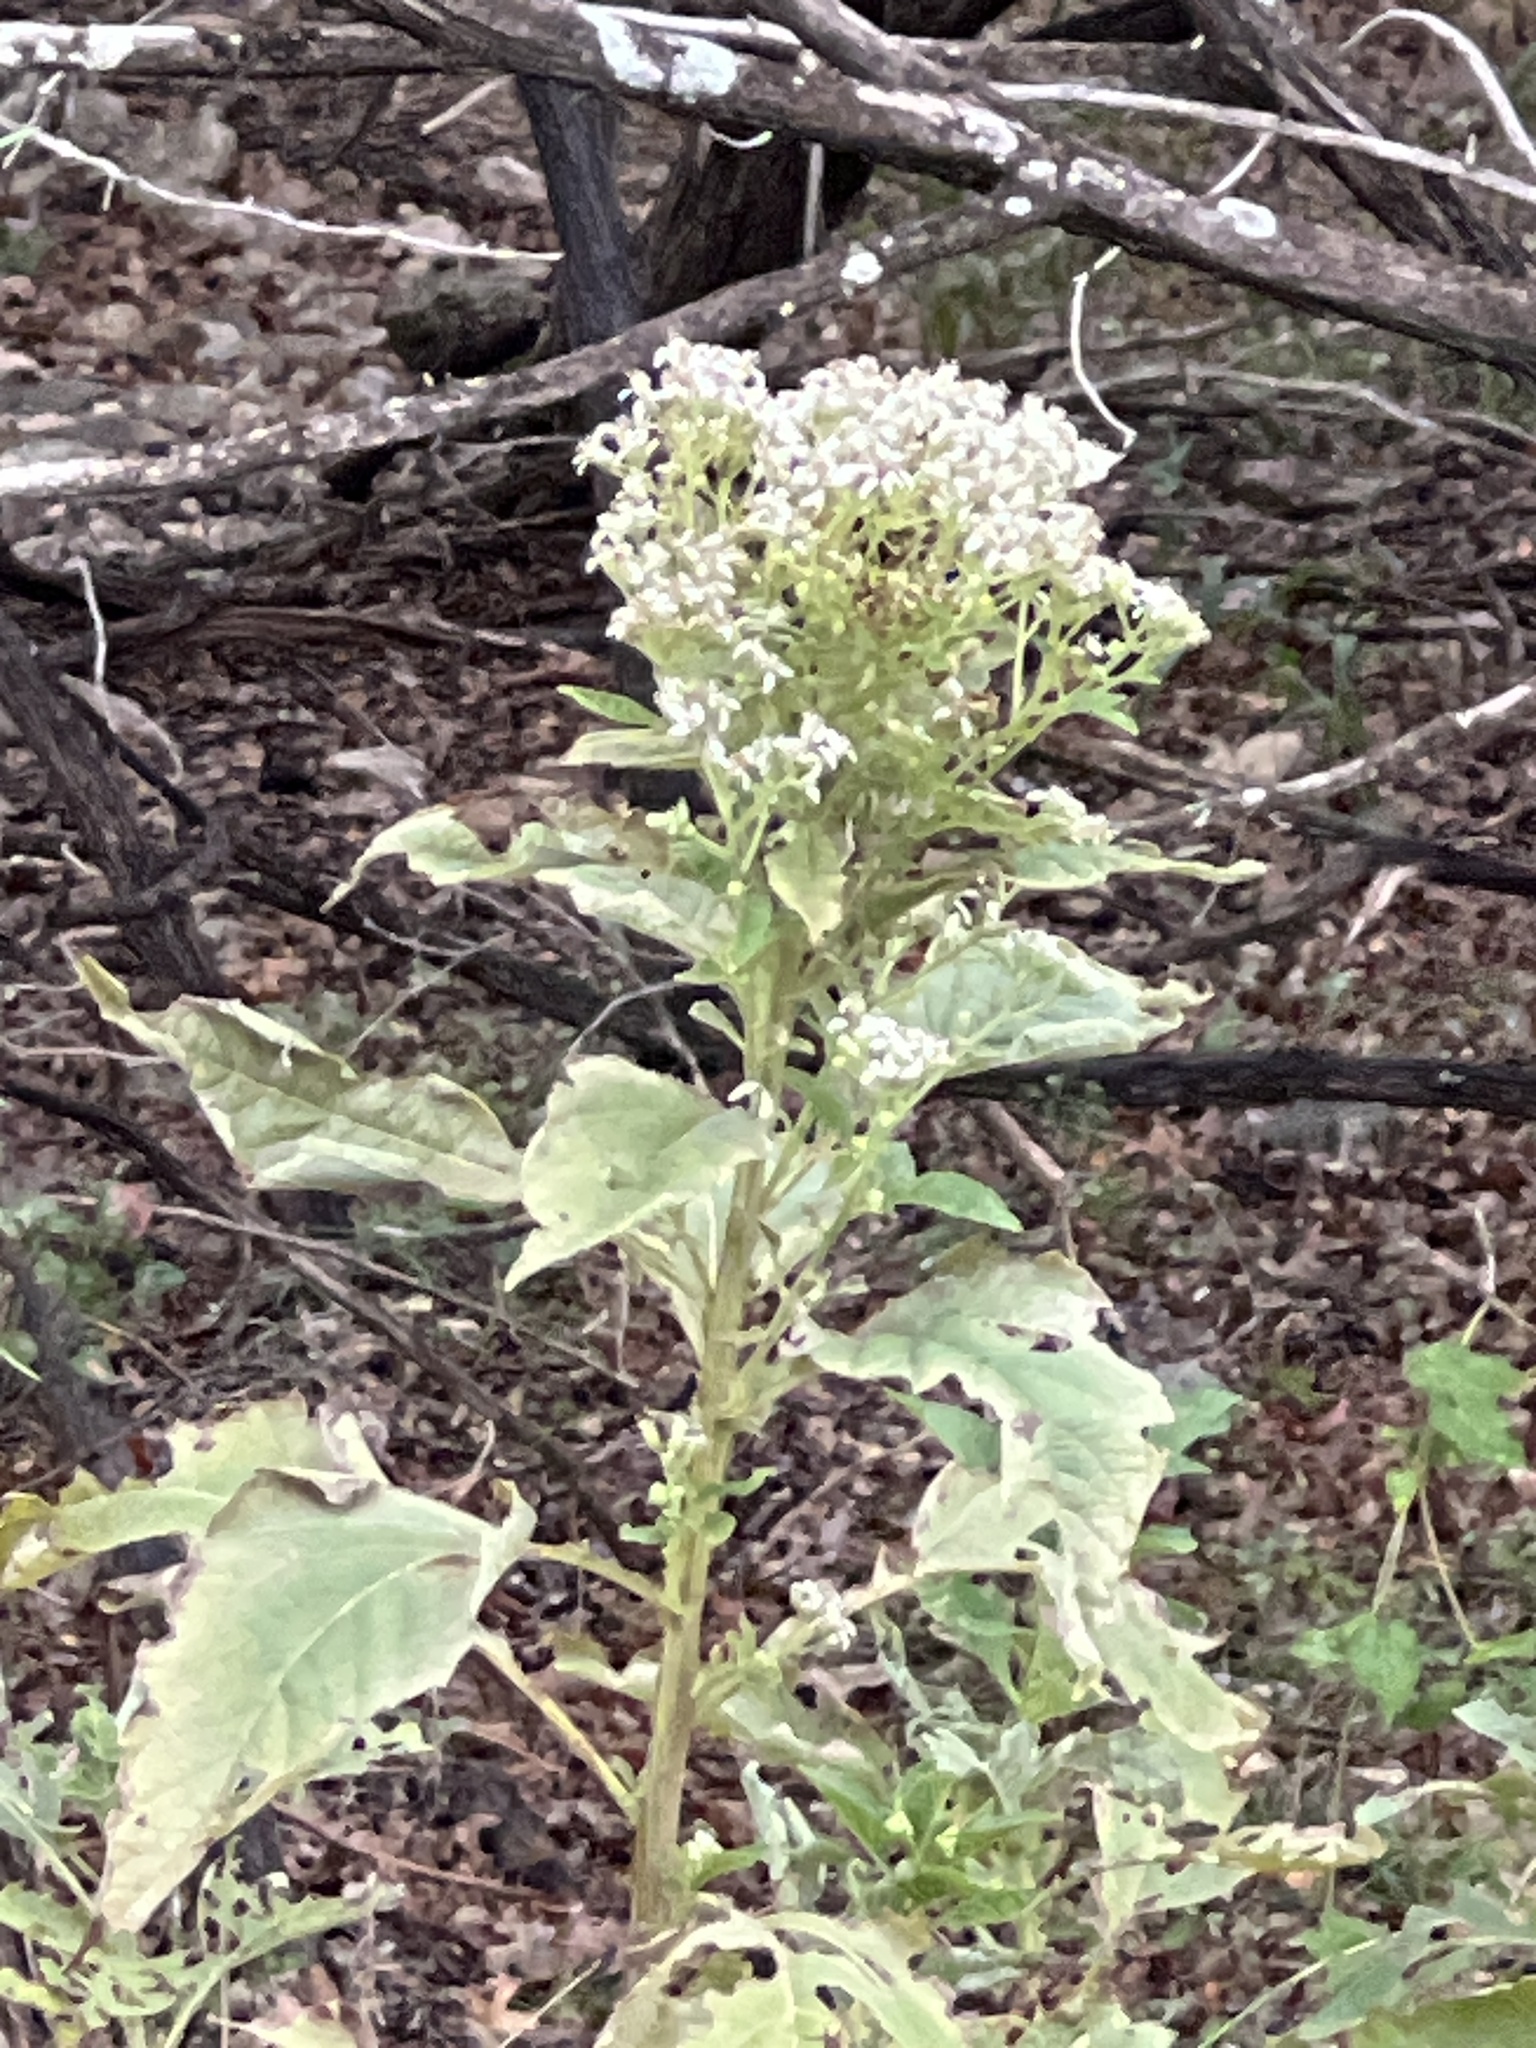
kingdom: Plantae
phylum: Tracheophyta
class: Magnoliopsida
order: Asterales
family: Asteraceae
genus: Verbesina
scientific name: Verbesina virginica
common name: Frostweed
